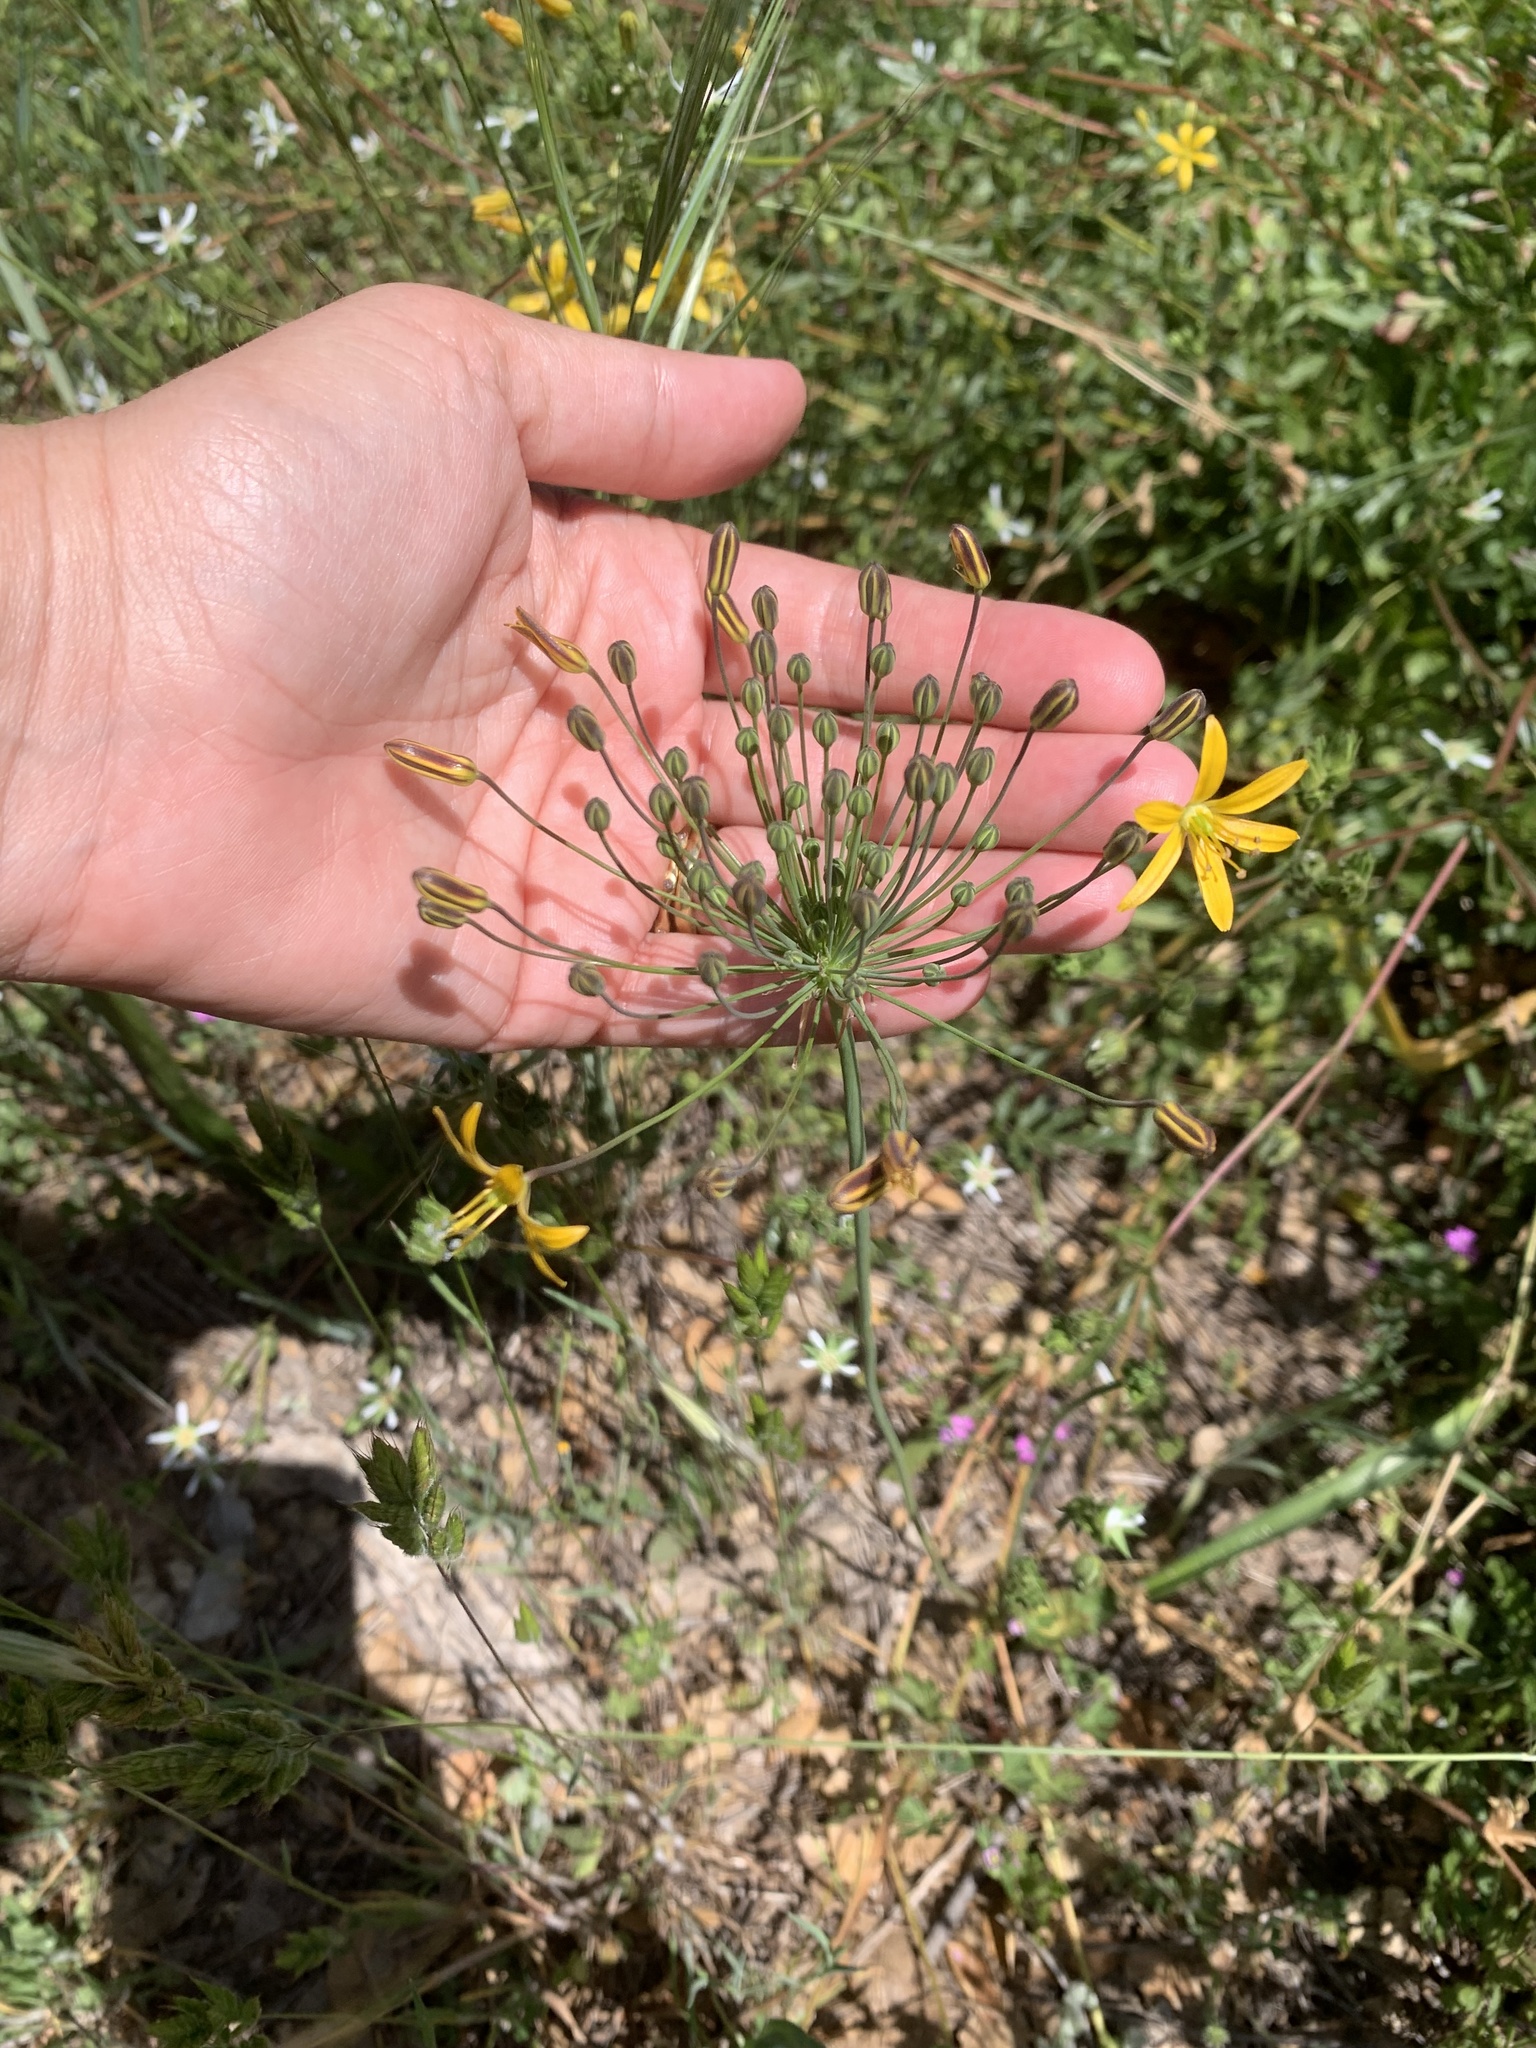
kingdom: Plantae
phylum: Tracheophyta
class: Liliopsida
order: Asparagales
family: Asparagaceae
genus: Bloomeria
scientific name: Bloomeria crocea
